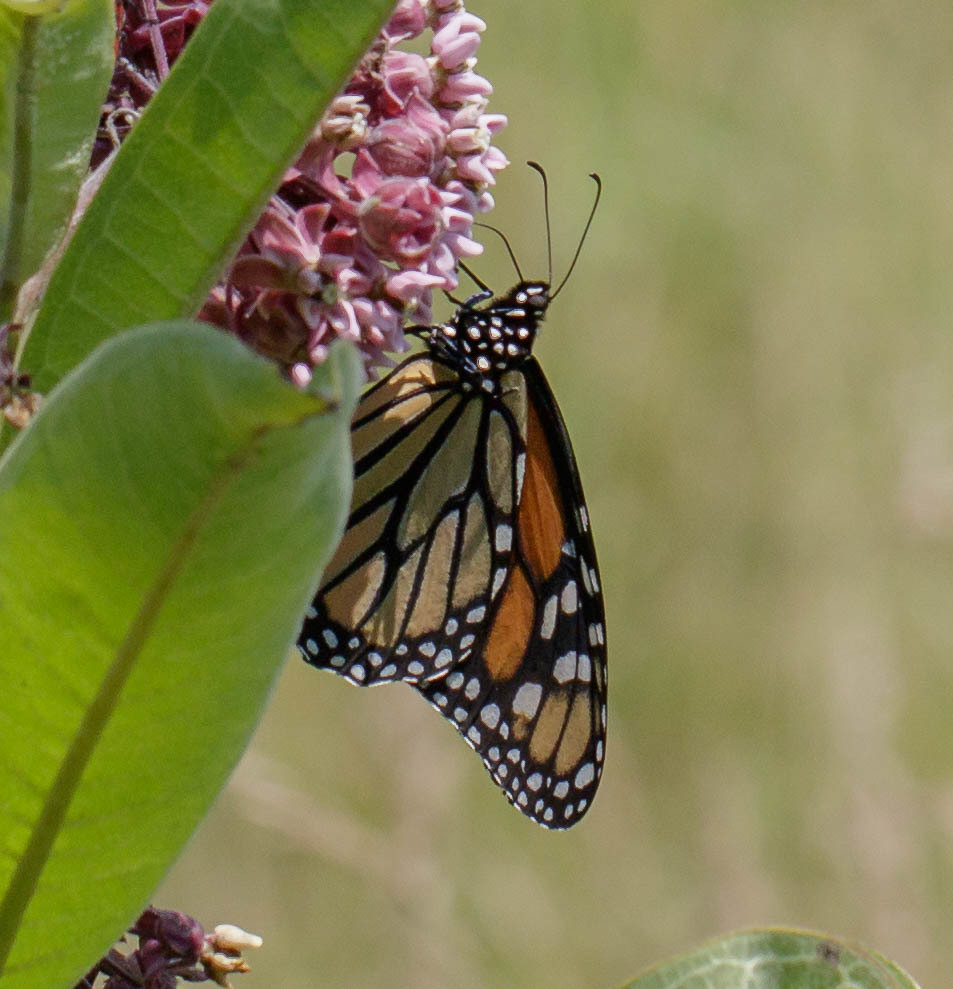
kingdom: Animalia
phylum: Arthropoda
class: Insecta
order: Lepidoptera
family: Nymphalidae
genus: Danaus
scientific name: Danaus plexippus
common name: Monarch
